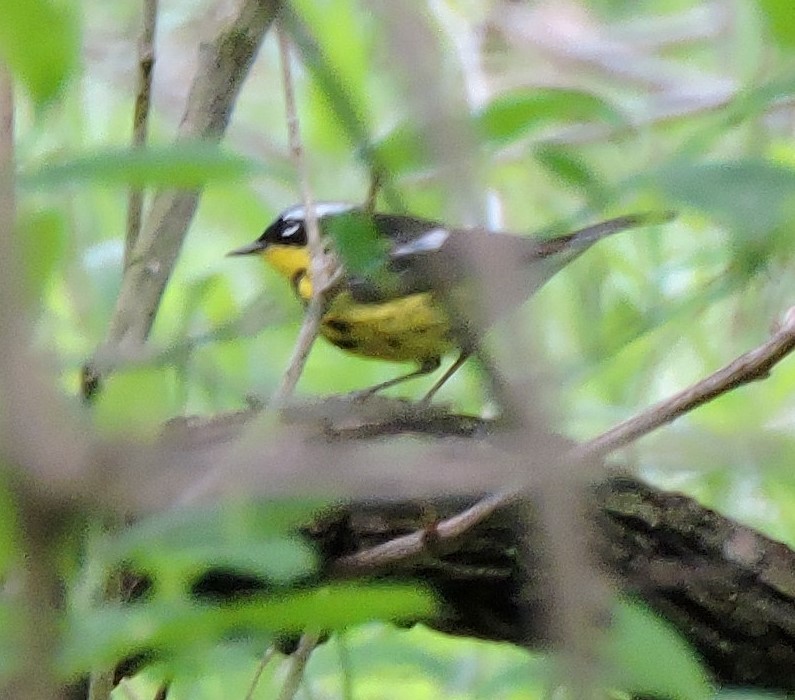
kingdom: Animalia
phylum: Chordata
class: Aves
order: Passeriformes
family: Parulidae
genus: Setophaga
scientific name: Setophaga magnolia
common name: Magnolia warbler
